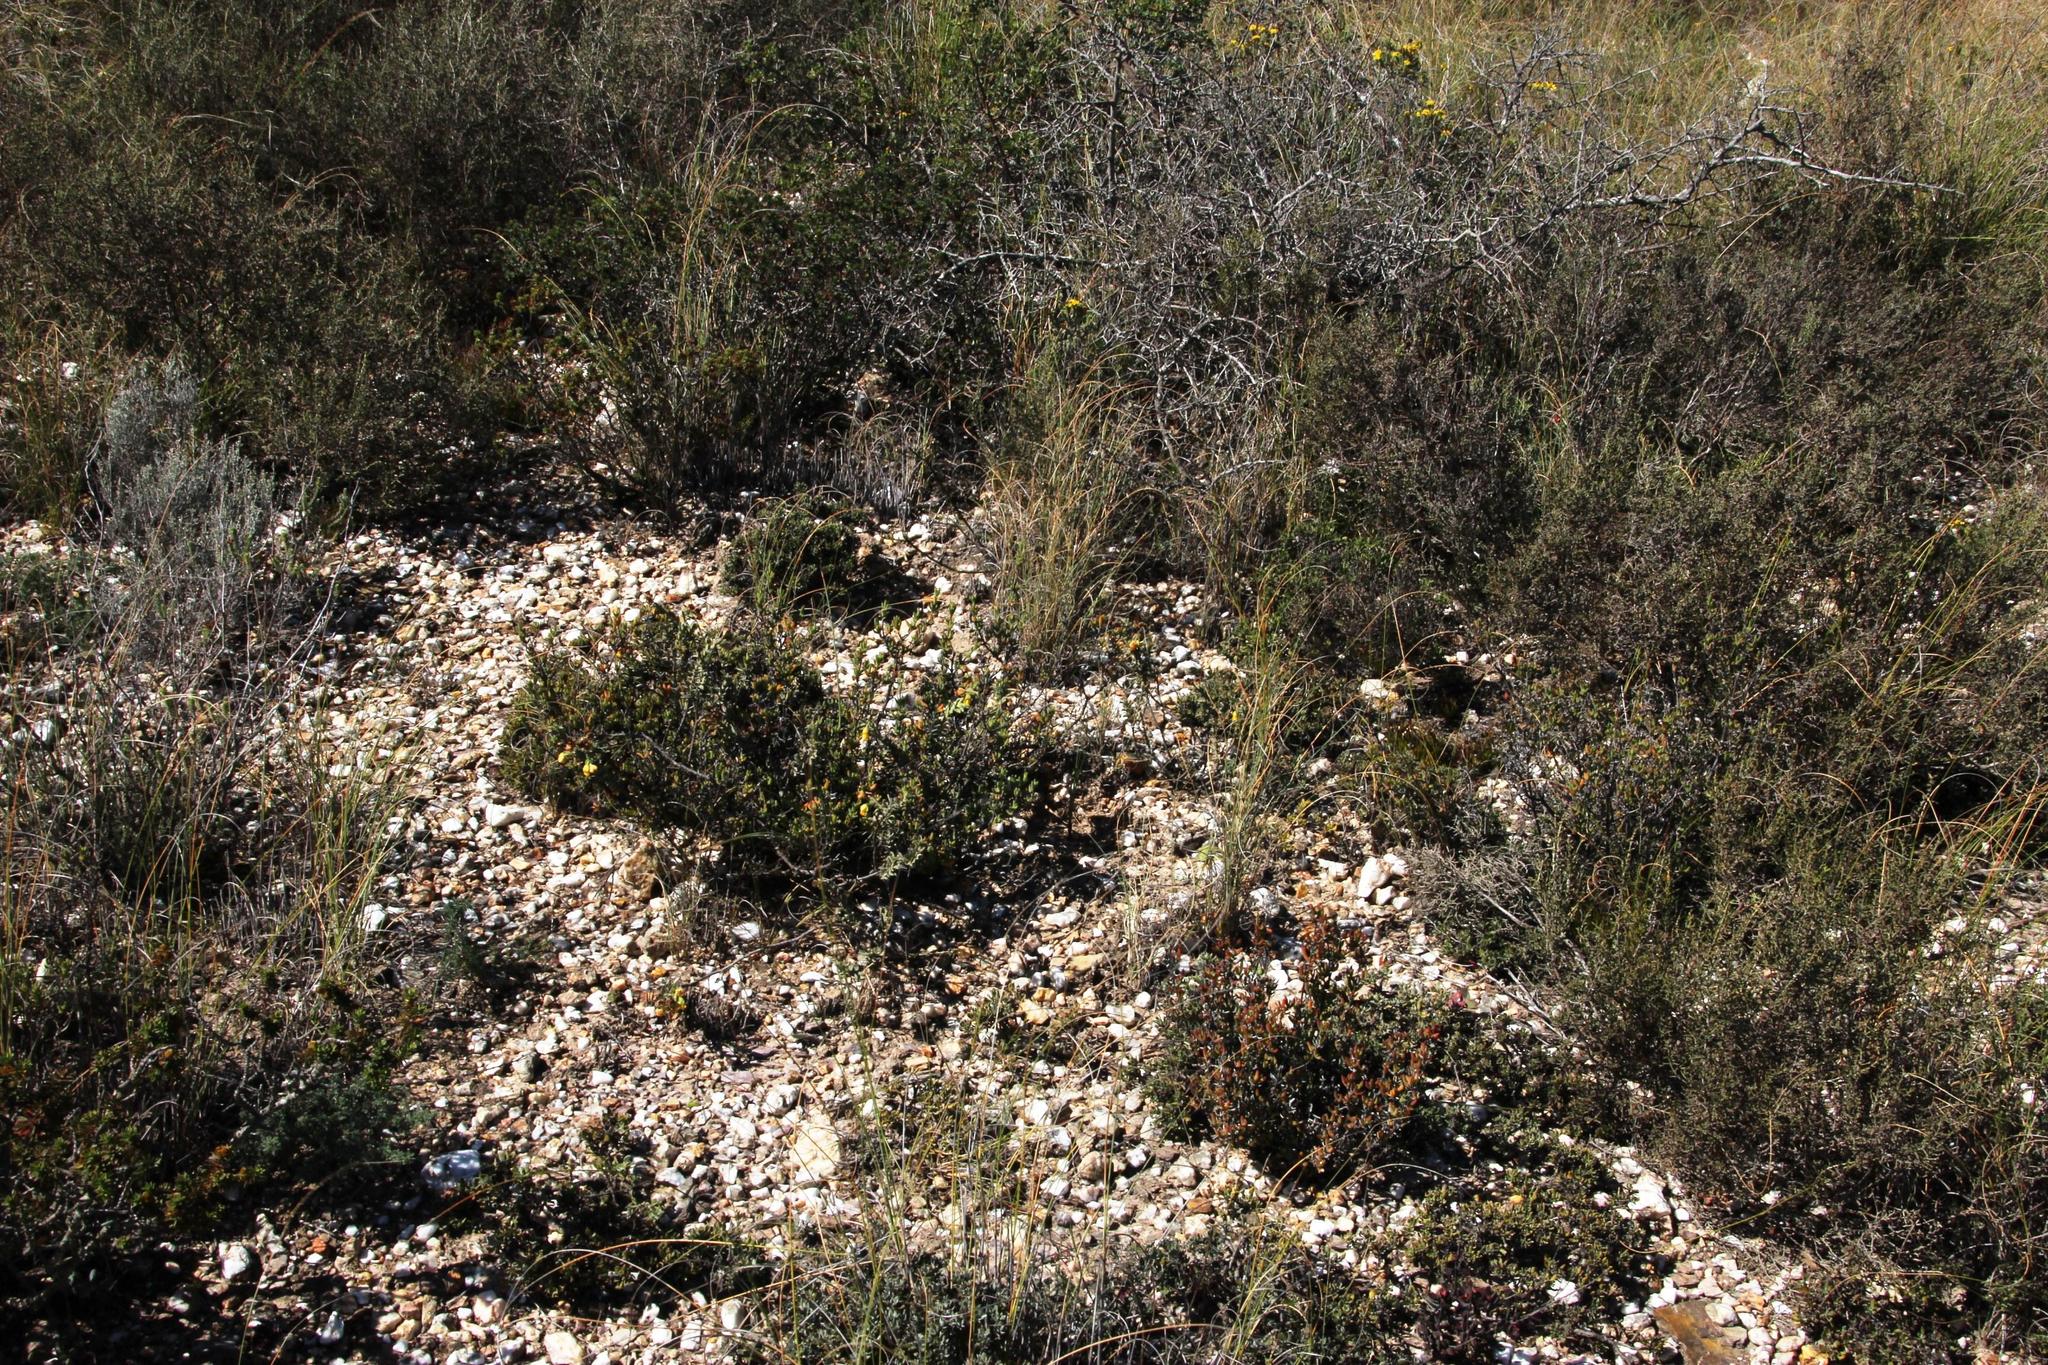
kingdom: Plantae
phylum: Tracheophyta
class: Magnoliopsida
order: Lamiales
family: Acanthaceae
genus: Barleria
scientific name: Barleria pungens
